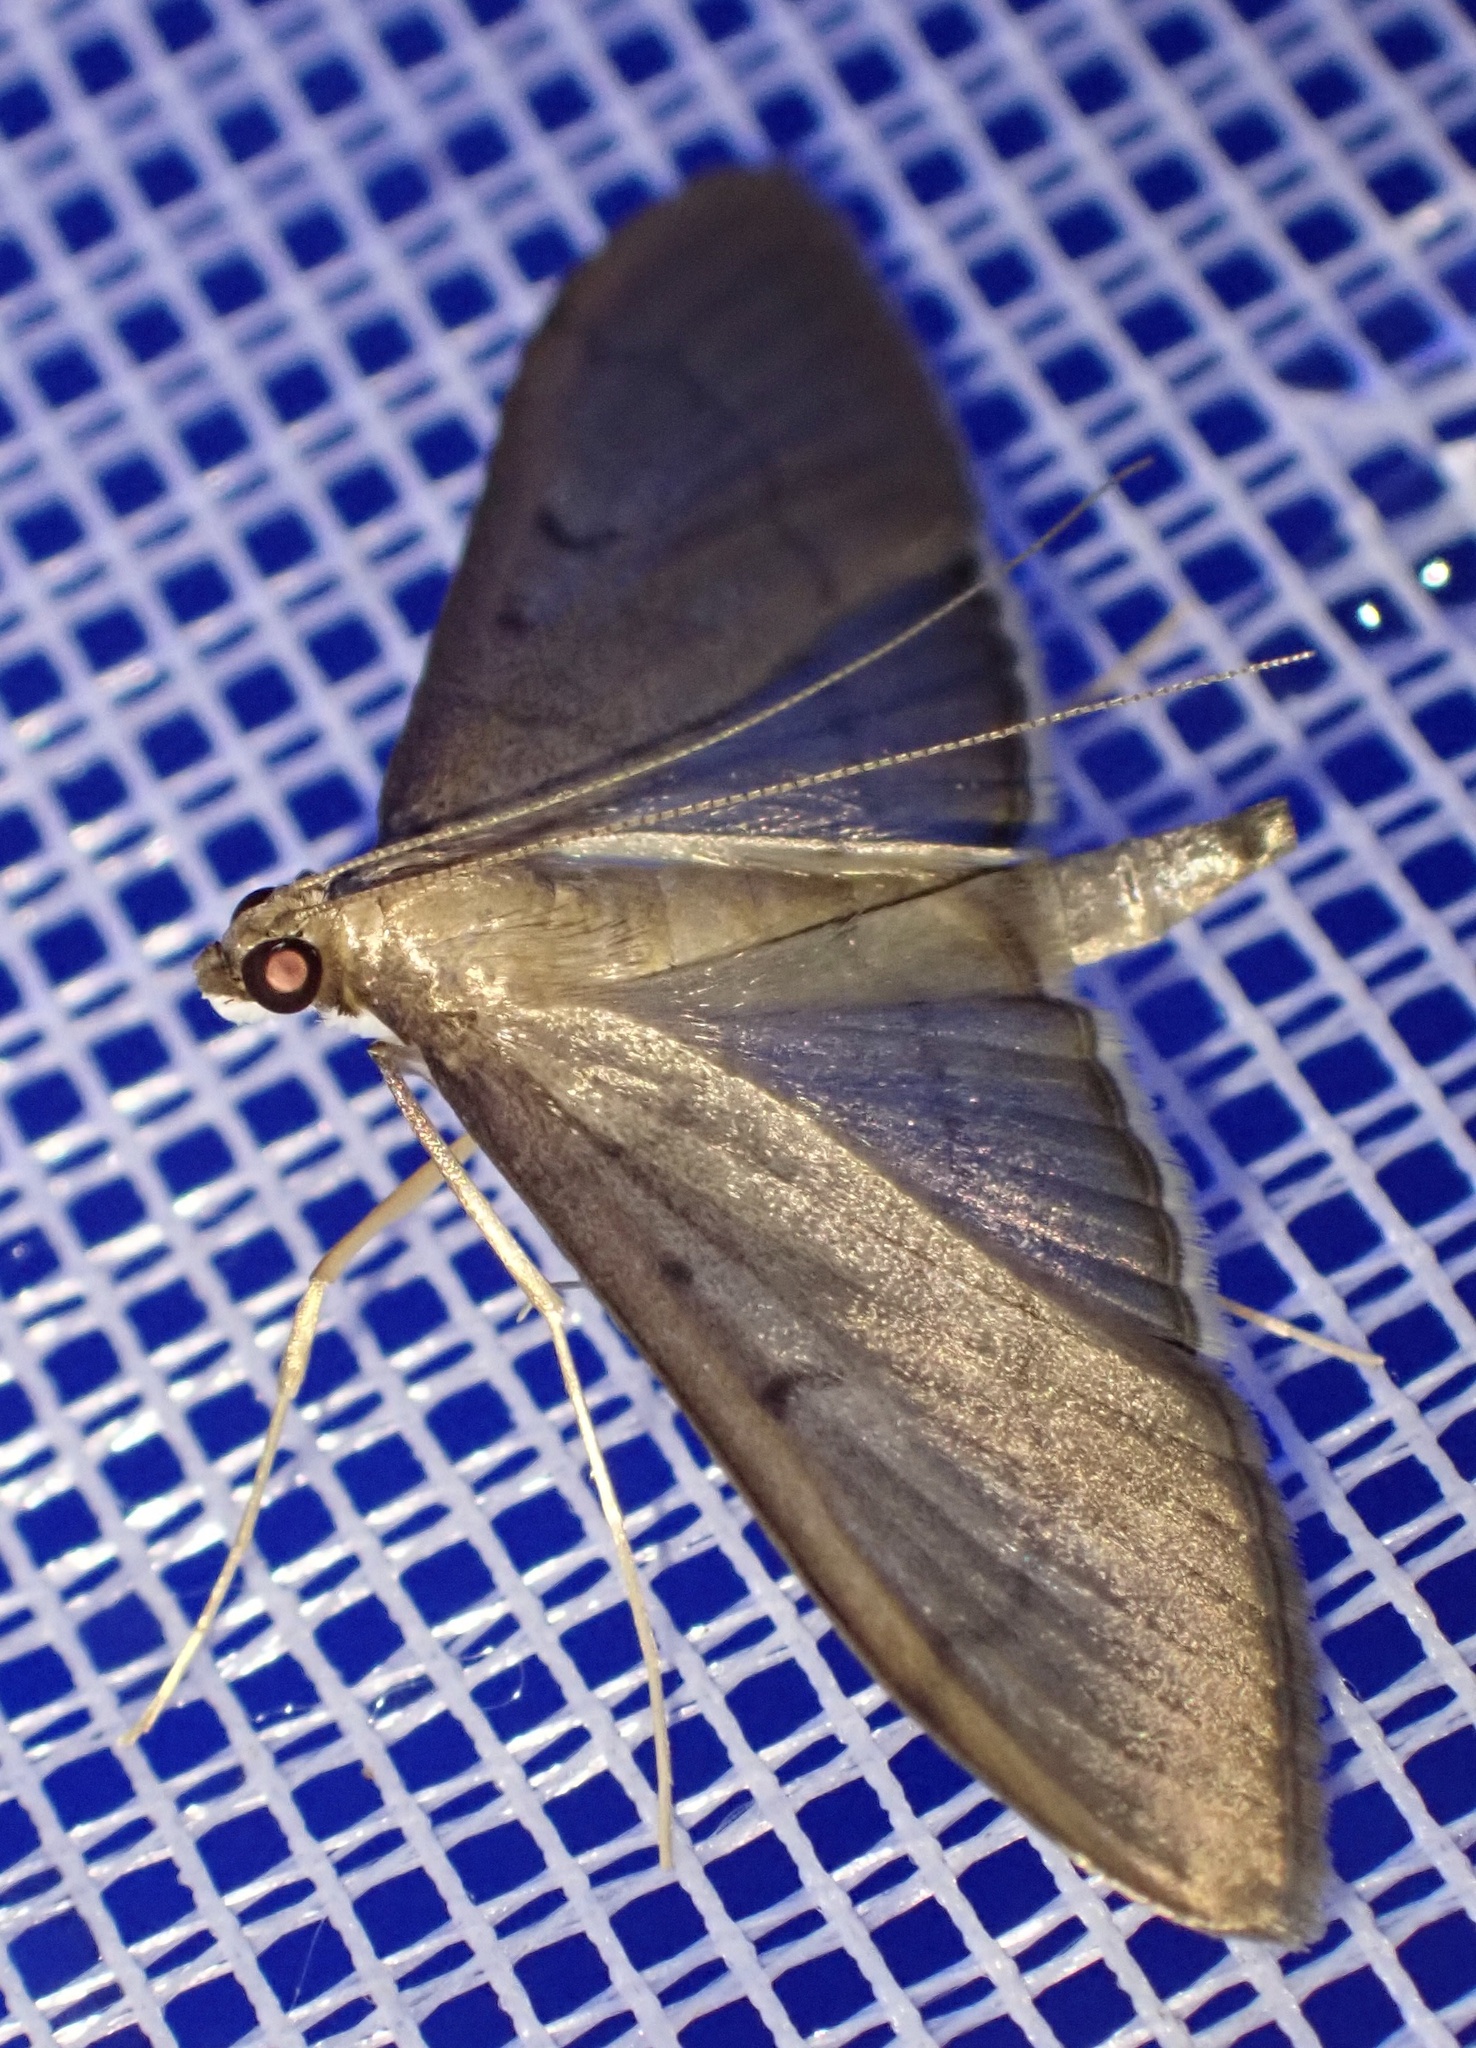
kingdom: Animalia
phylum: Arthropoda
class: Insecta
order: Lepidoptera
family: Crambidae
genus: Bradina
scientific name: Bradina admixtalis
